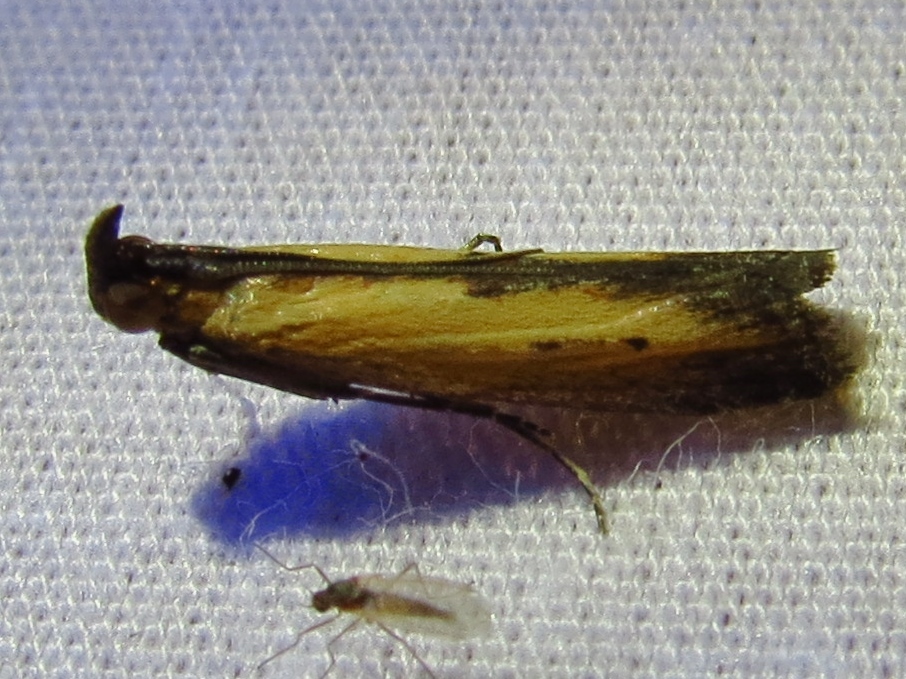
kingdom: Animalia
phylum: Arthropoda
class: Insecta
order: Lepidoptera
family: Pyralidae
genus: Elasmopalpus
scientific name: Elasmopalpus lignosella
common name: Lesser cornstalk borer
